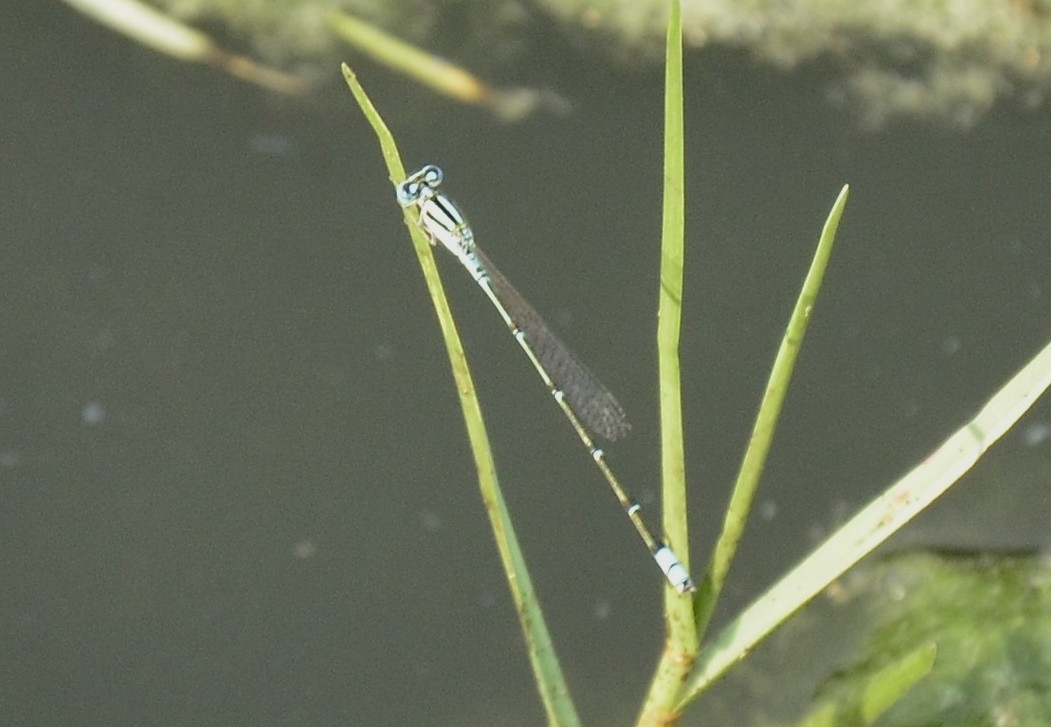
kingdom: Animalia
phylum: Arthropoda
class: Insecta
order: Odonata
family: Coenagrionidae
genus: Pseudagrion
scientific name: Pseudagrion microcephalum
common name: Blue riverdamsel
